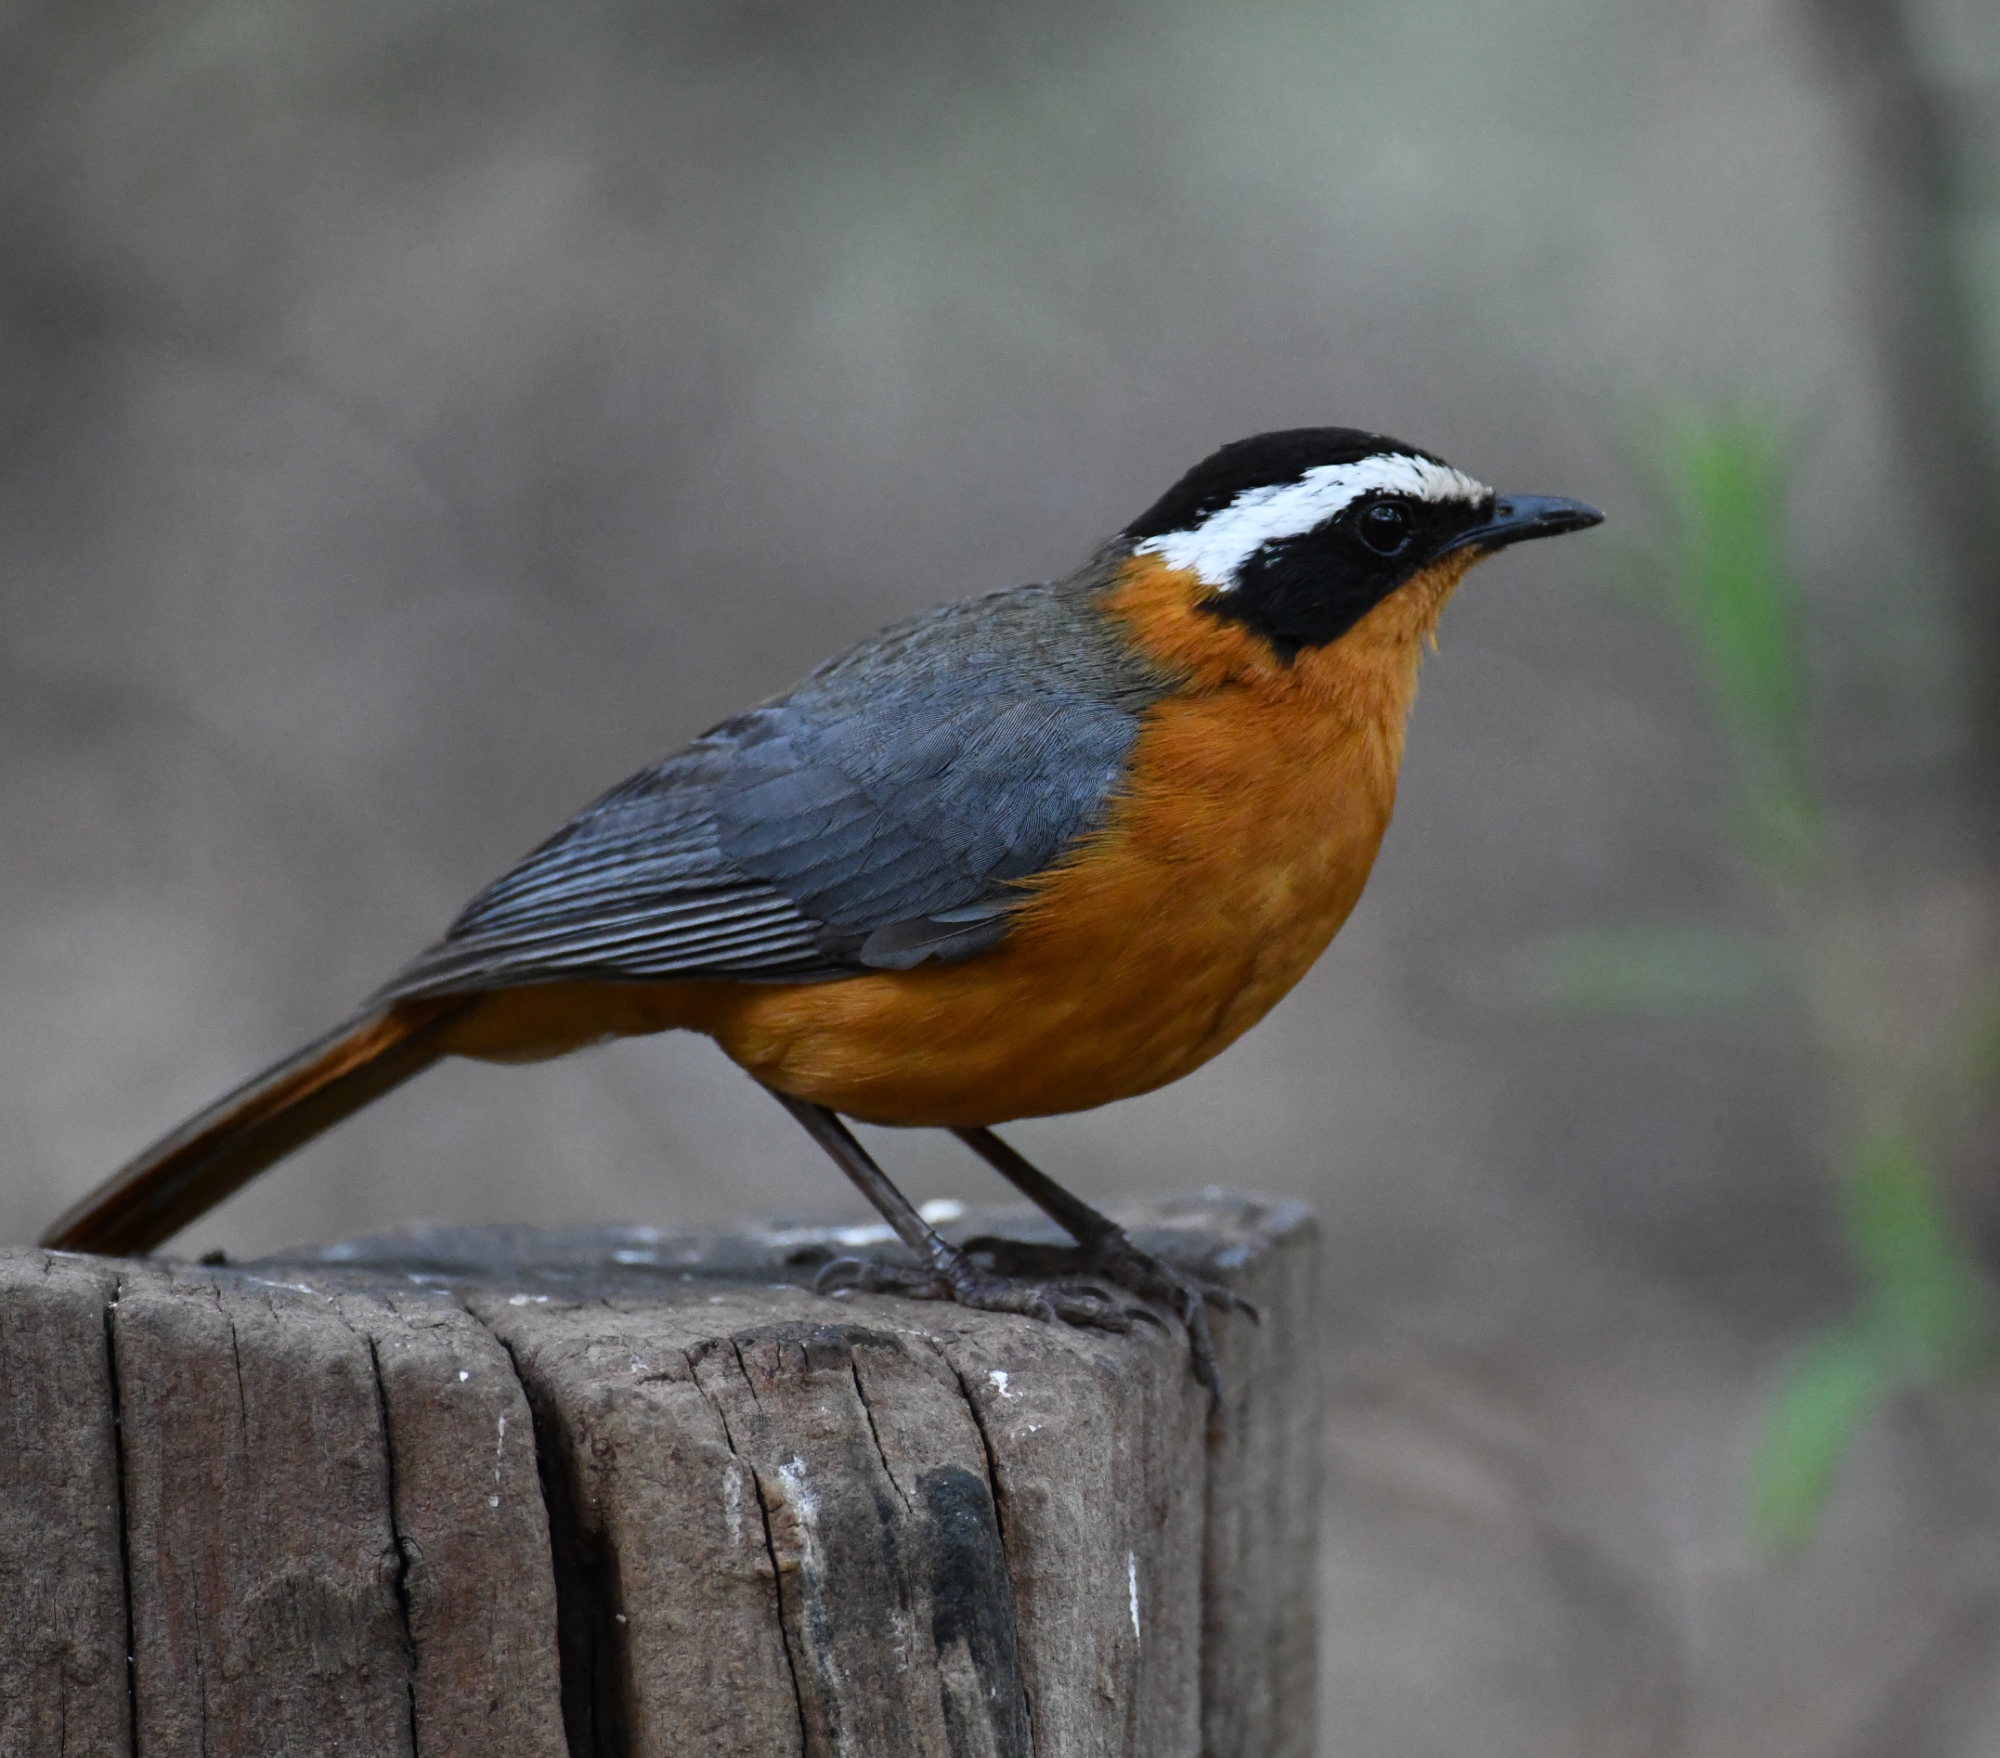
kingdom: Animalia
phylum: Chordata
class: Aves
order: Passeriformes
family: Muscicapidae
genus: Cossypha
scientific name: Cossypha heuglini
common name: White-browed robin-chat
